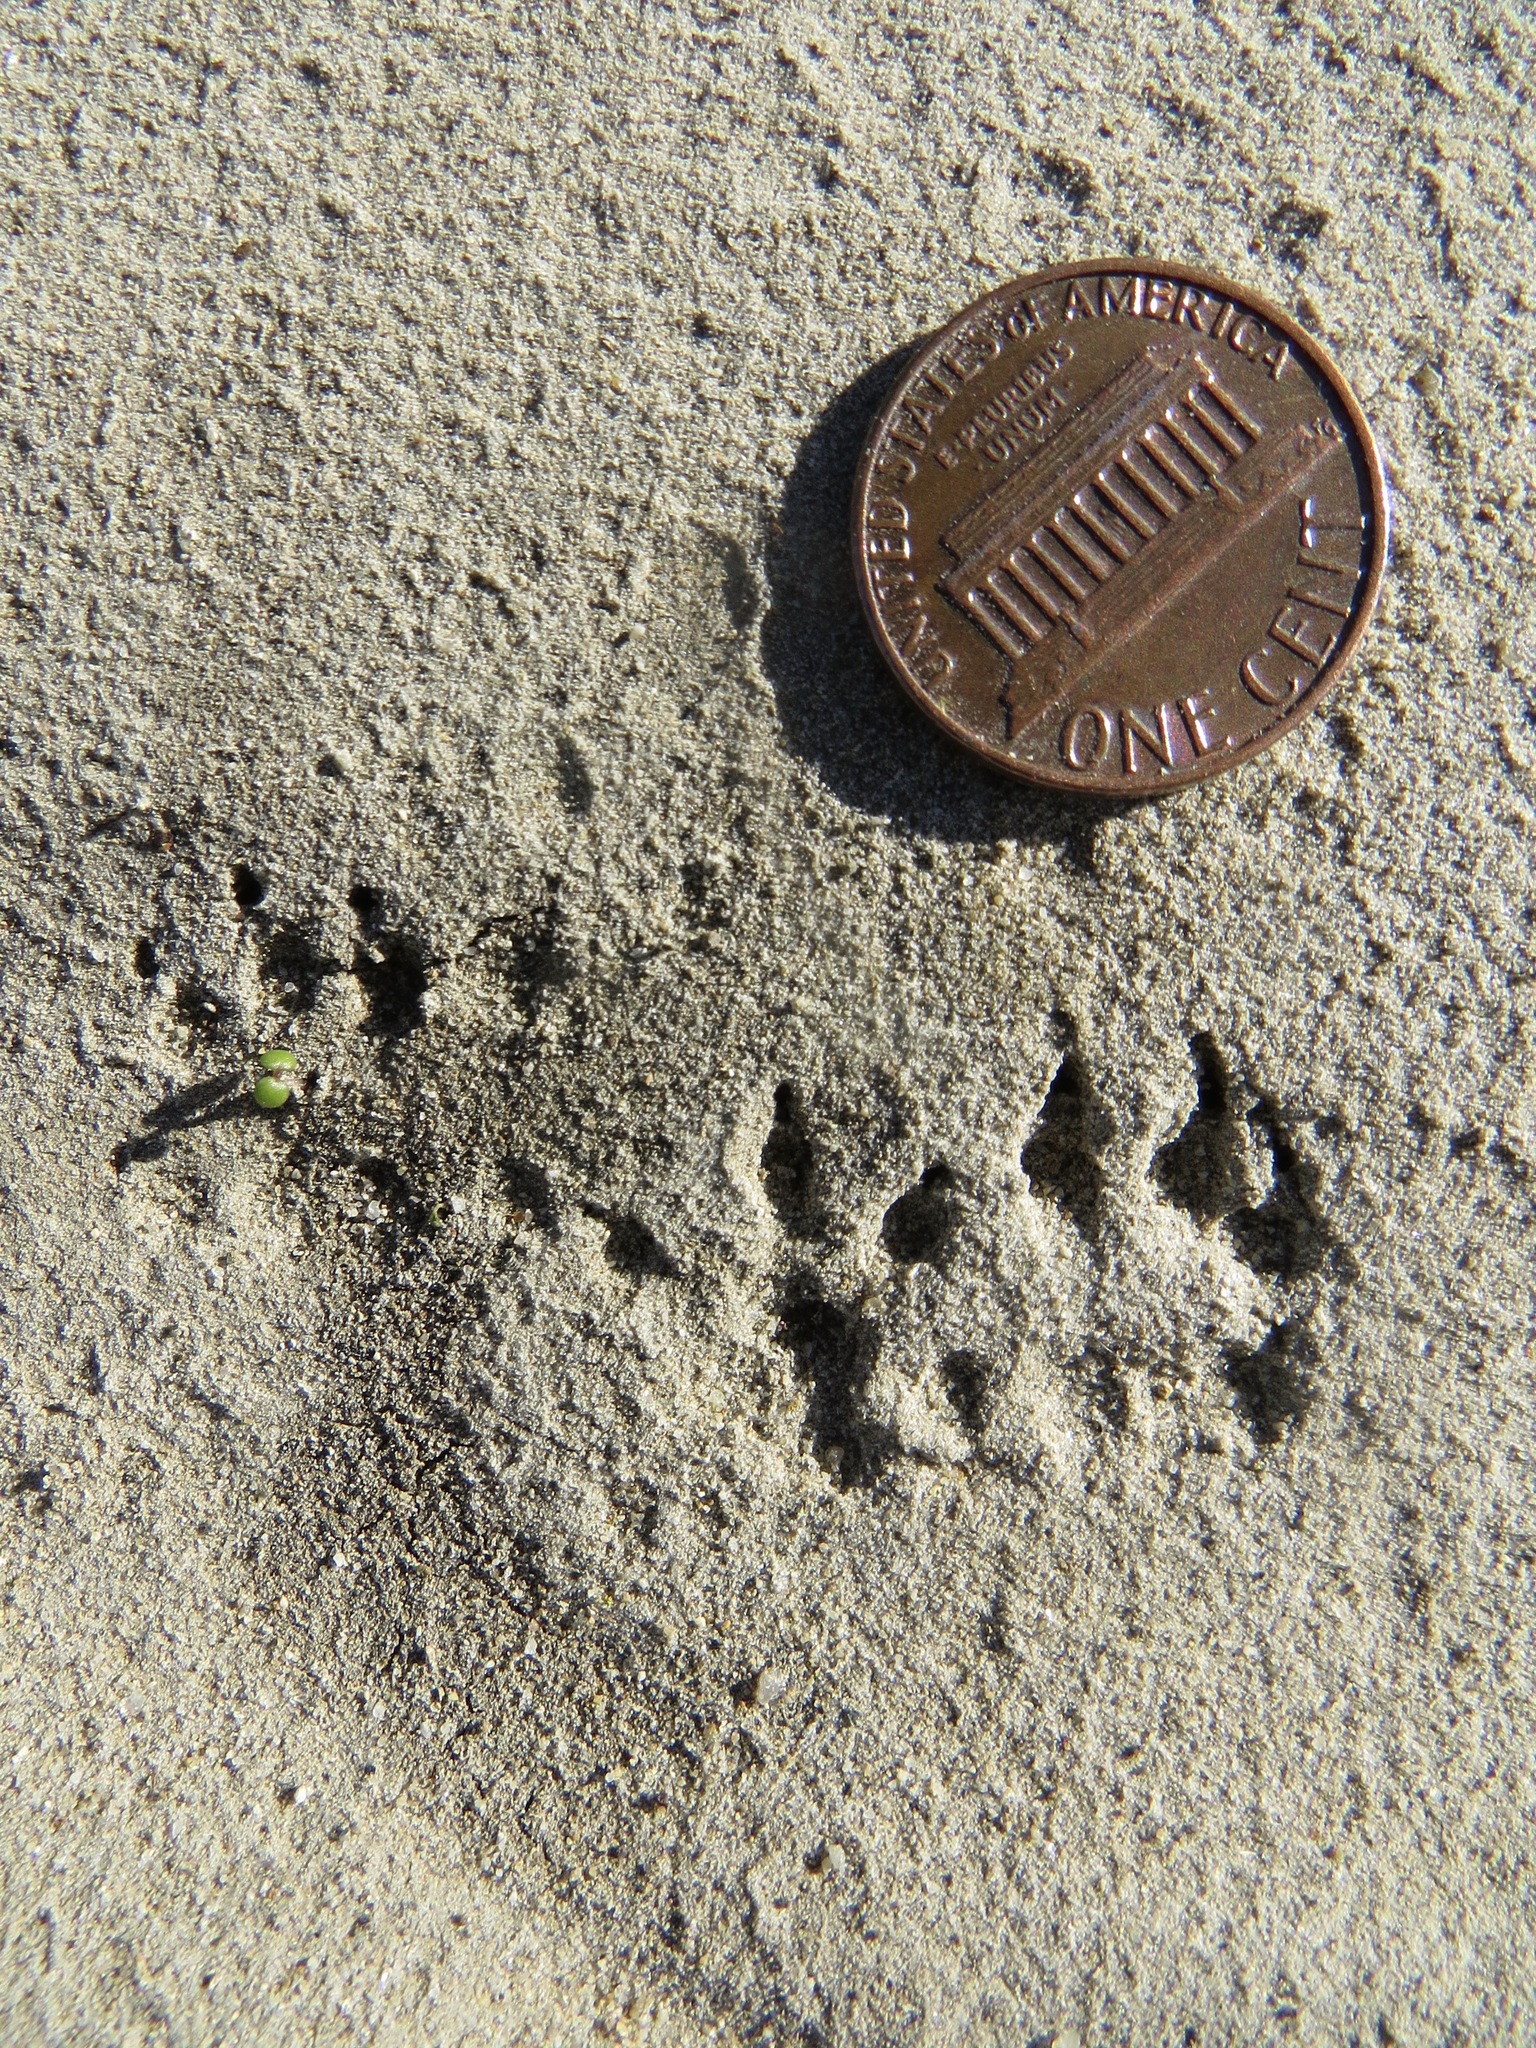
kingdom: Animalia
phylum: Chordata
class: Mammalia
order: Carnivora
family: Mustelidae
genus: Mustela
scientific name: Mustela
